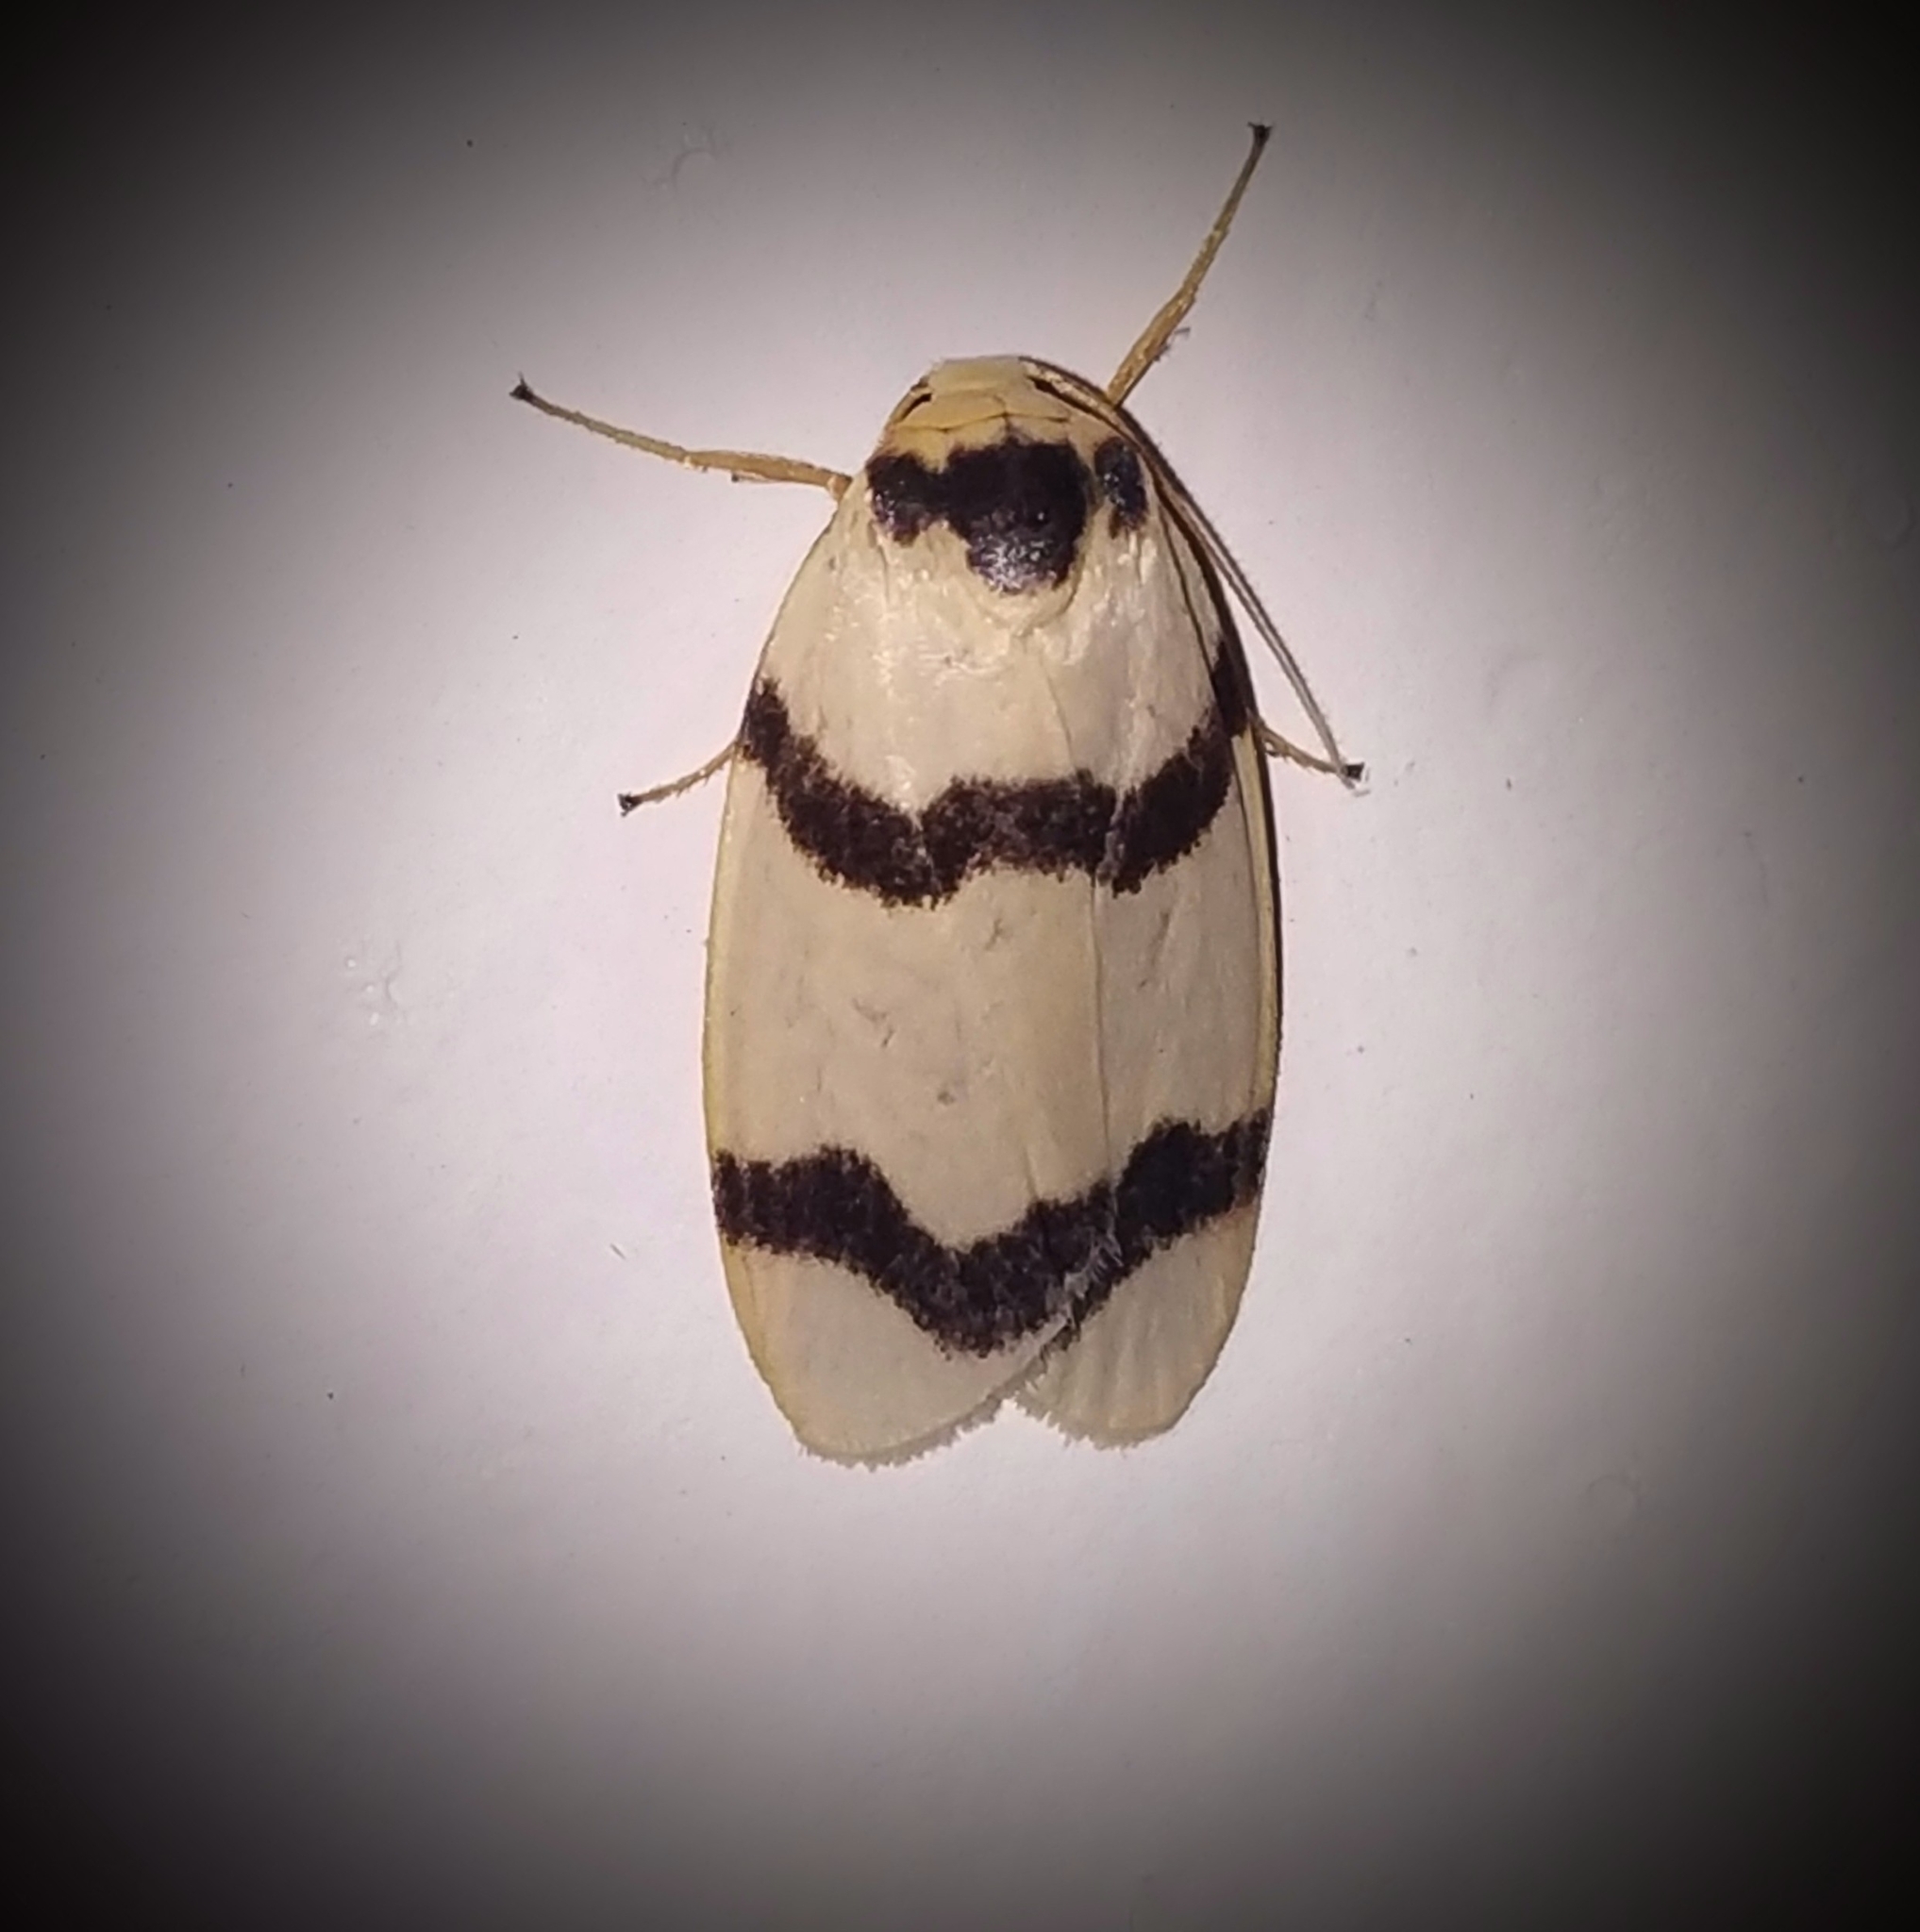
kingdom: Animalia
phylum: Arthropoda
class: Insecta
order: Lepidoptera
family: Erebidae
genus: Padenia
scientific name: Padenia transversa
